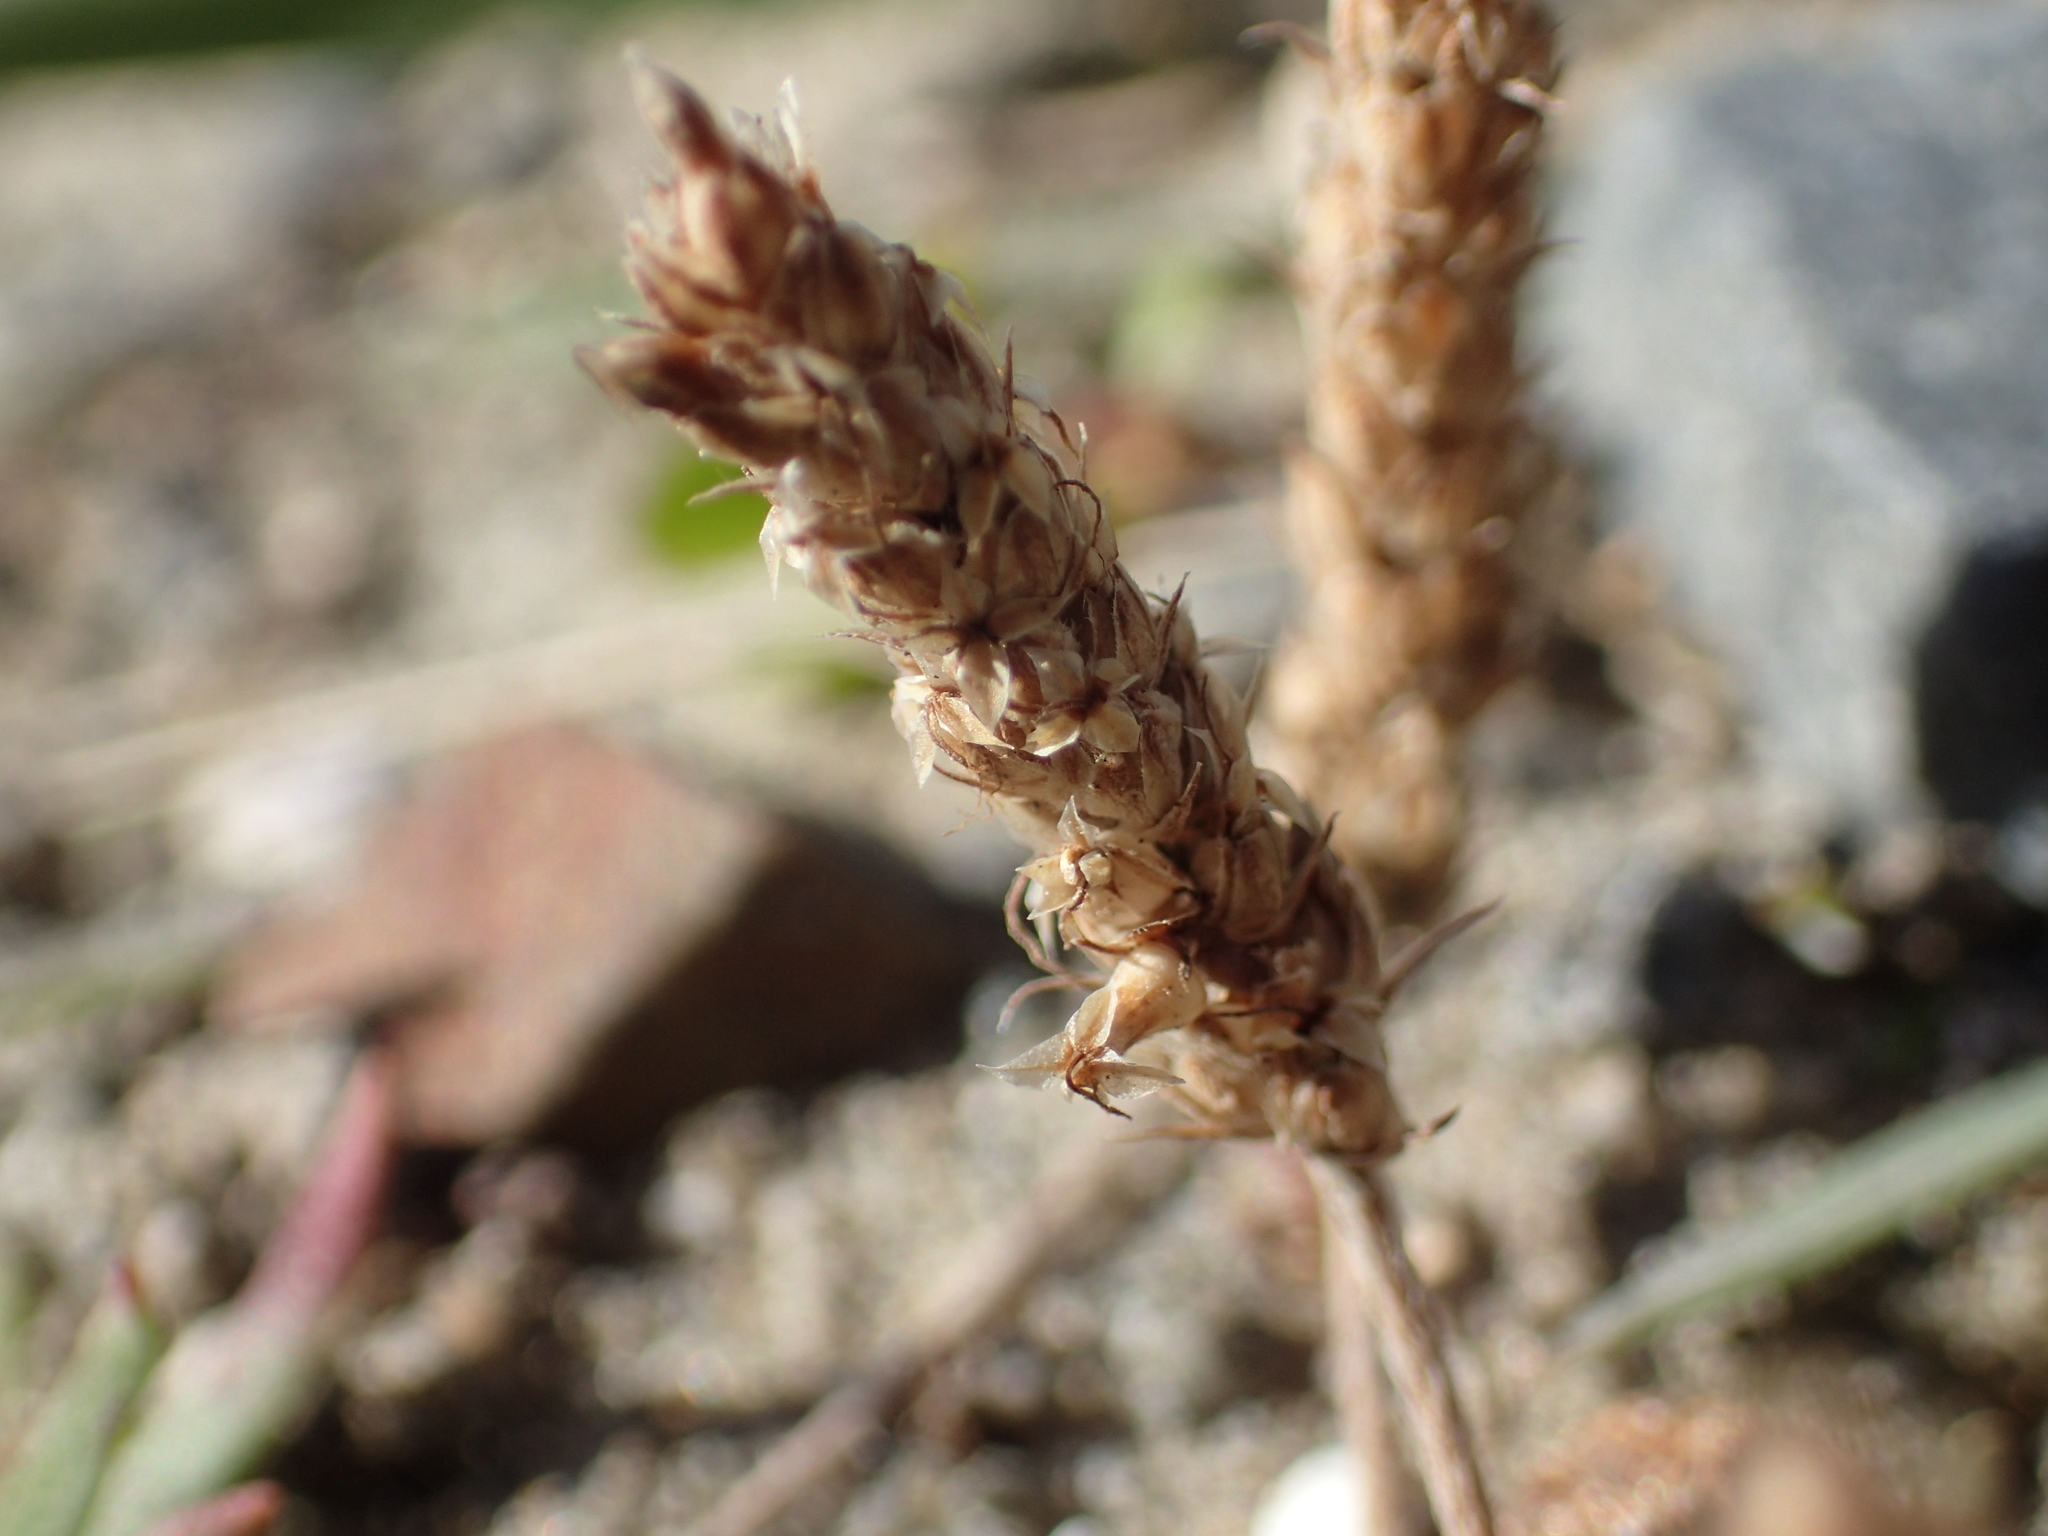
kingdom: Plantae
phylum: Tracheophyta
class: Magnoliopsida
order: Lamiales
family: Plantaginaceae
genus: Plantago
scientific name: Plantago coronopus
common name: Buck's-horn plantain
